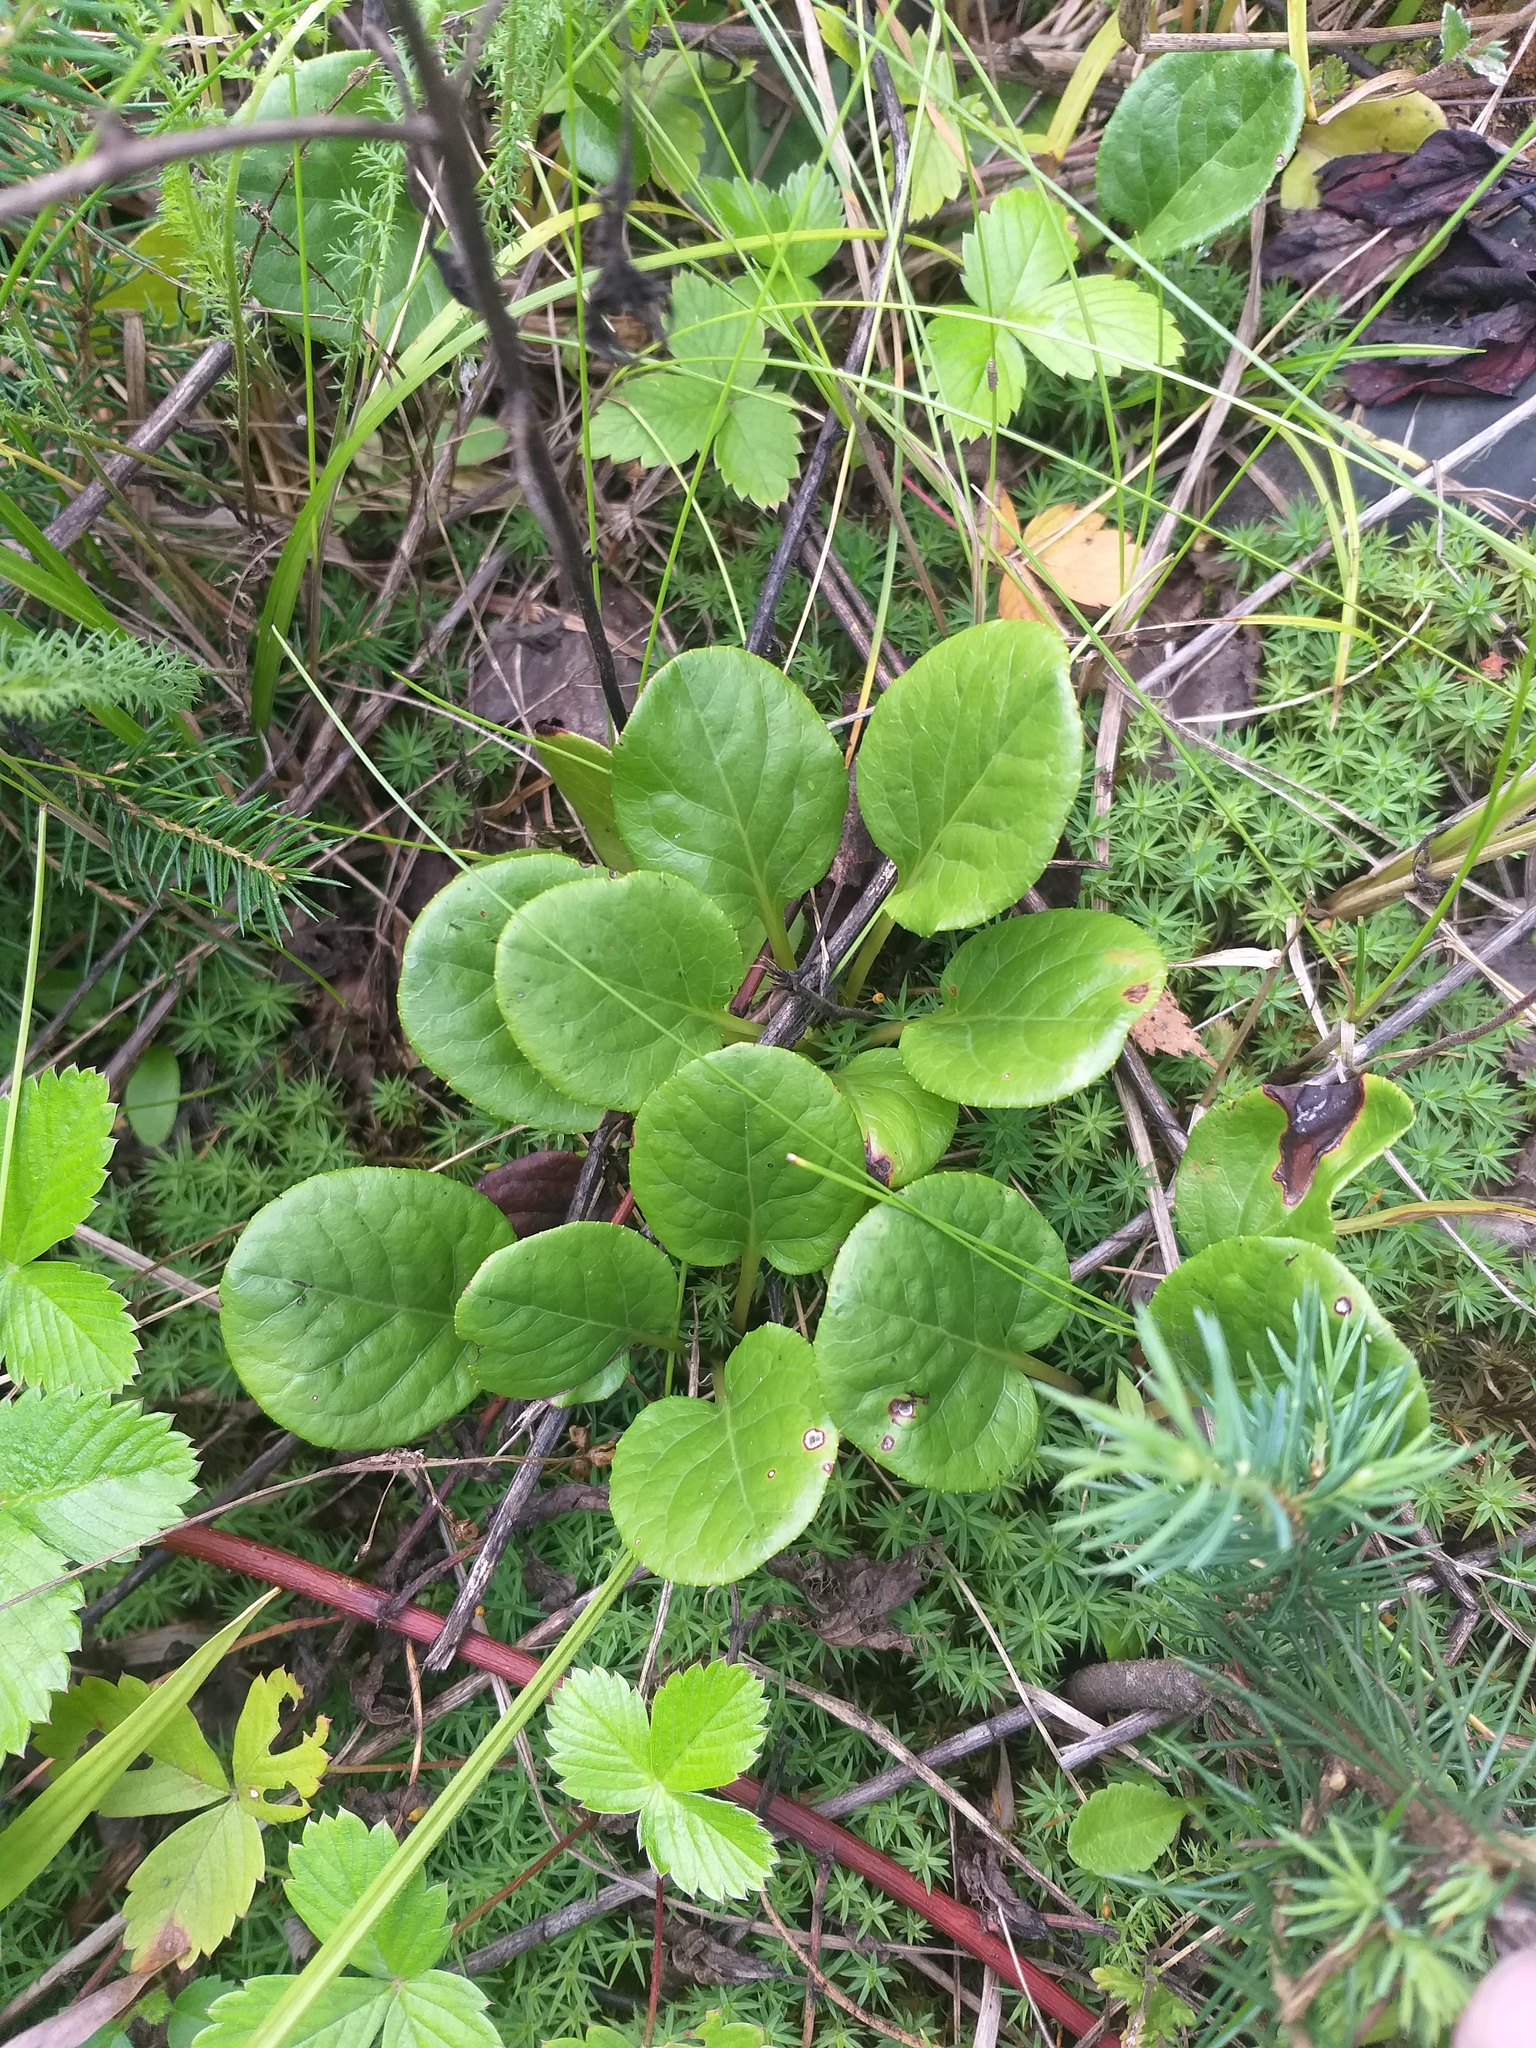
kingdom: Plantae
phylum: Tracheophyta
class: Magnoliopsida
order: Ericales
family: Ericaceae
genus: Pyrola
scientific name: Pyrola rotundifolia
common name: Round-leaved wintergreen
